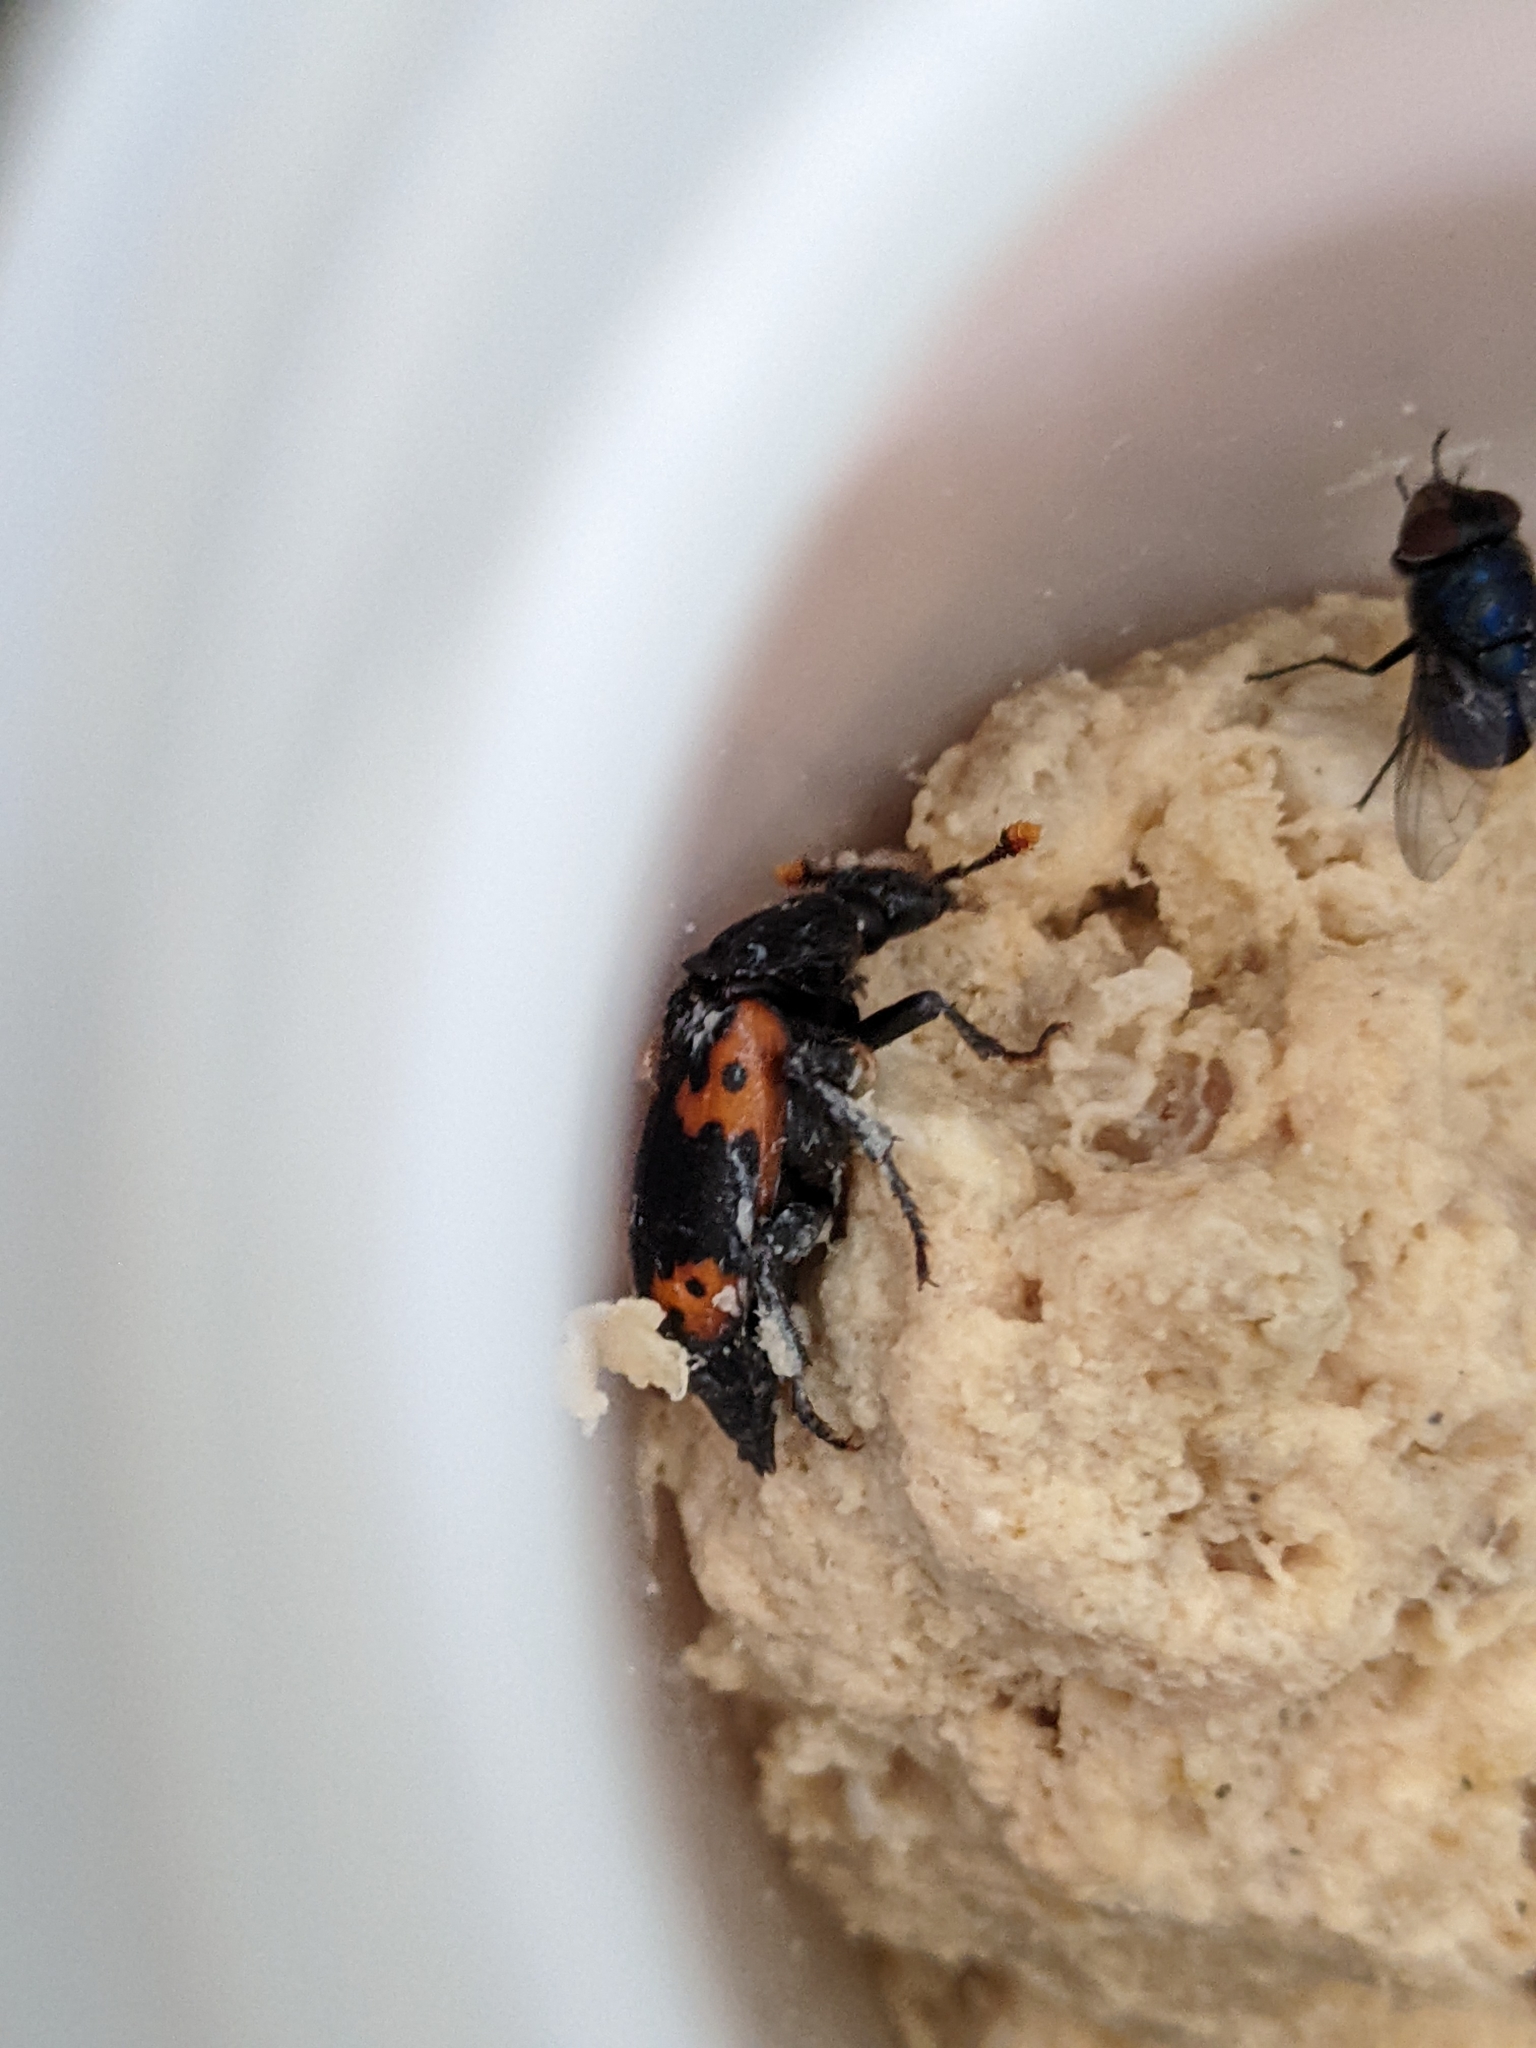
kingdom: Animalia
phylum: Arthropoda
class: Insecta
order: Coleoptera
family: Staphylinidae
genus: Nicrophorus
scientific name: Nicrophorus nepalensis
